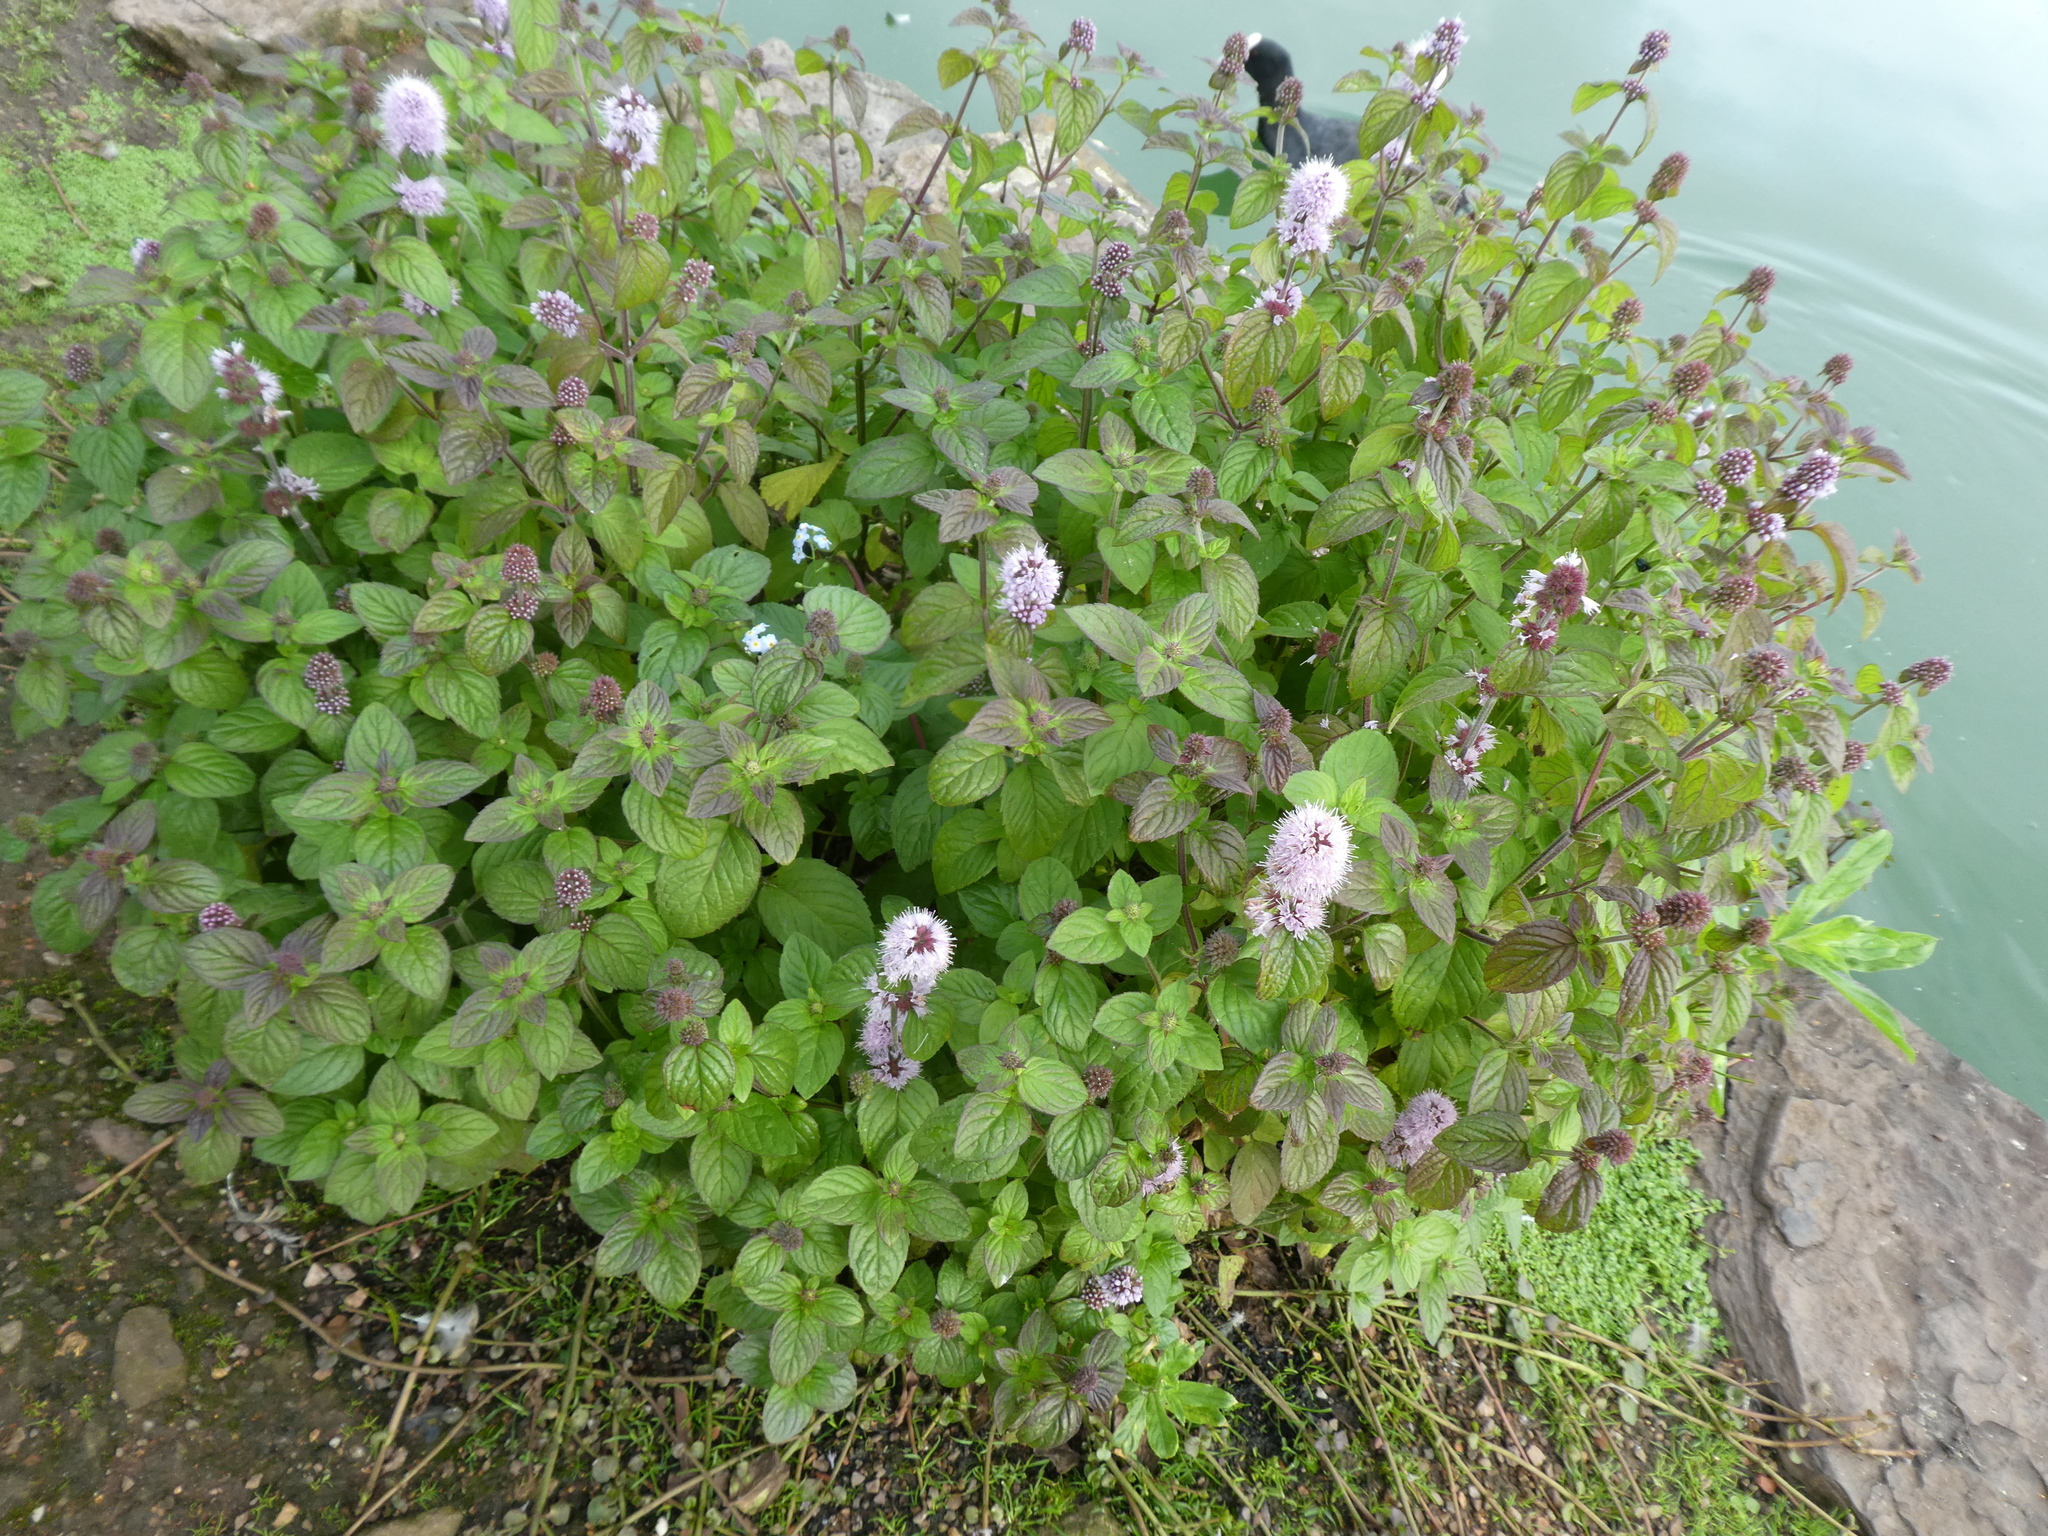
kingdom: Plantae
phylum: Tracheophyta
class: Magnoliopsida
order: Lamiales
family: Lamiaceae
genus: Mentha
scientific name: Mentha aquatica
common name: Water mint
